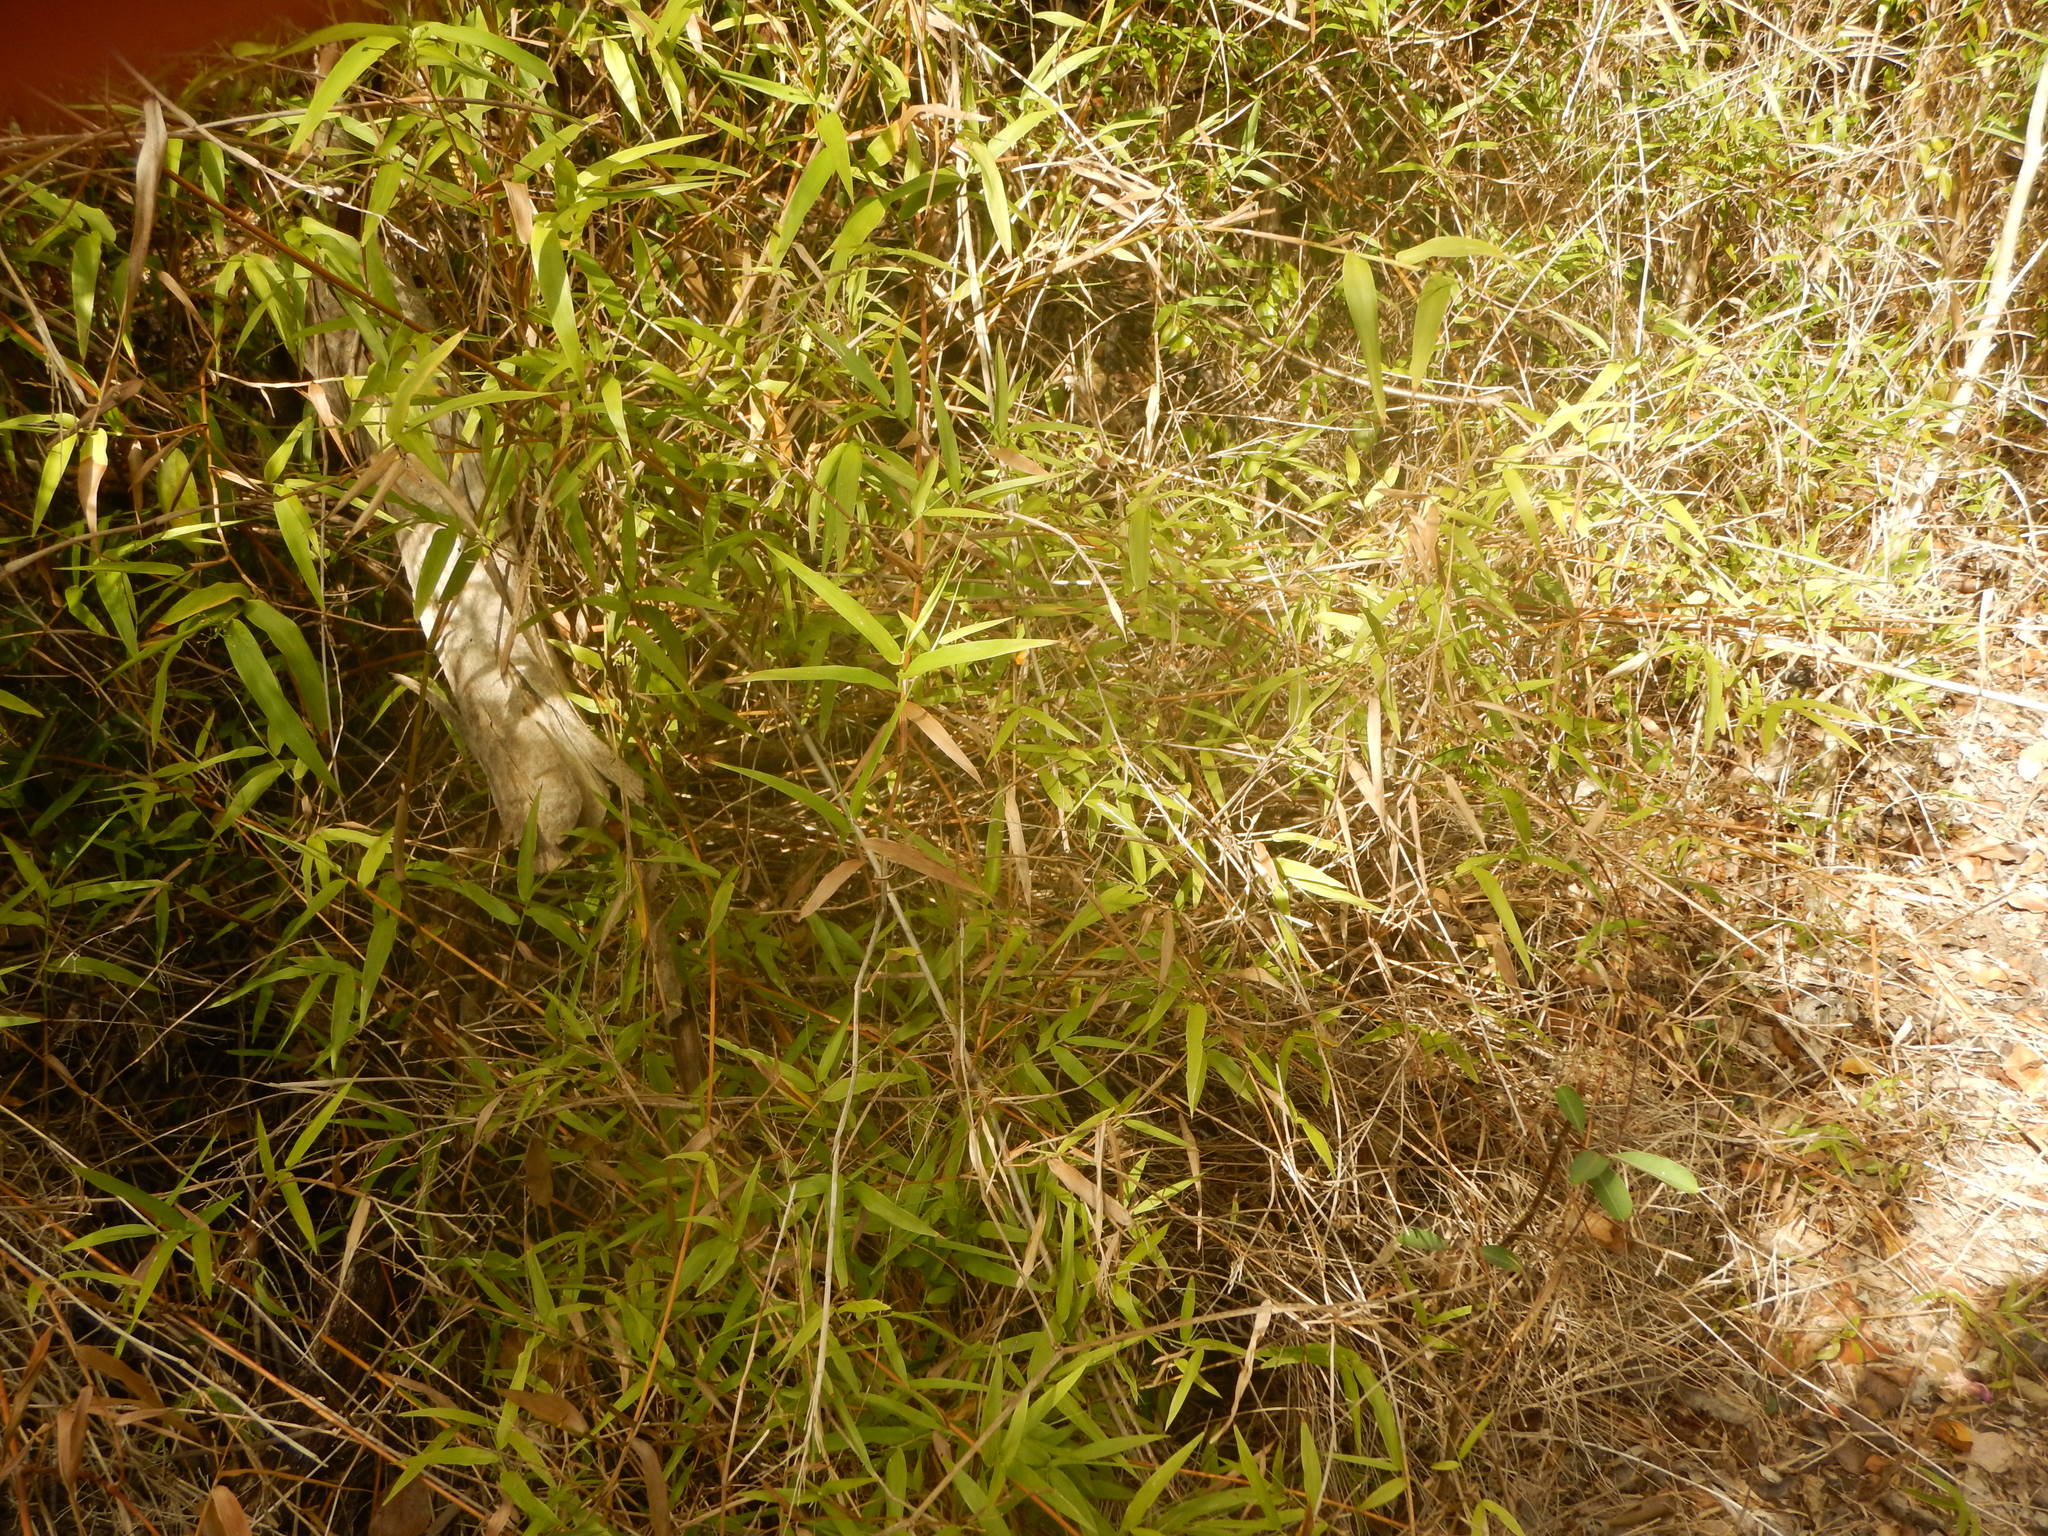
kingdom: Plantae
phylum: Tracheophyta
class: Liliopsida
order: Poales
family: Poaceae
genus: Lasiacis
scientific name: Lasiacis divaricata
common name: Smallcane
